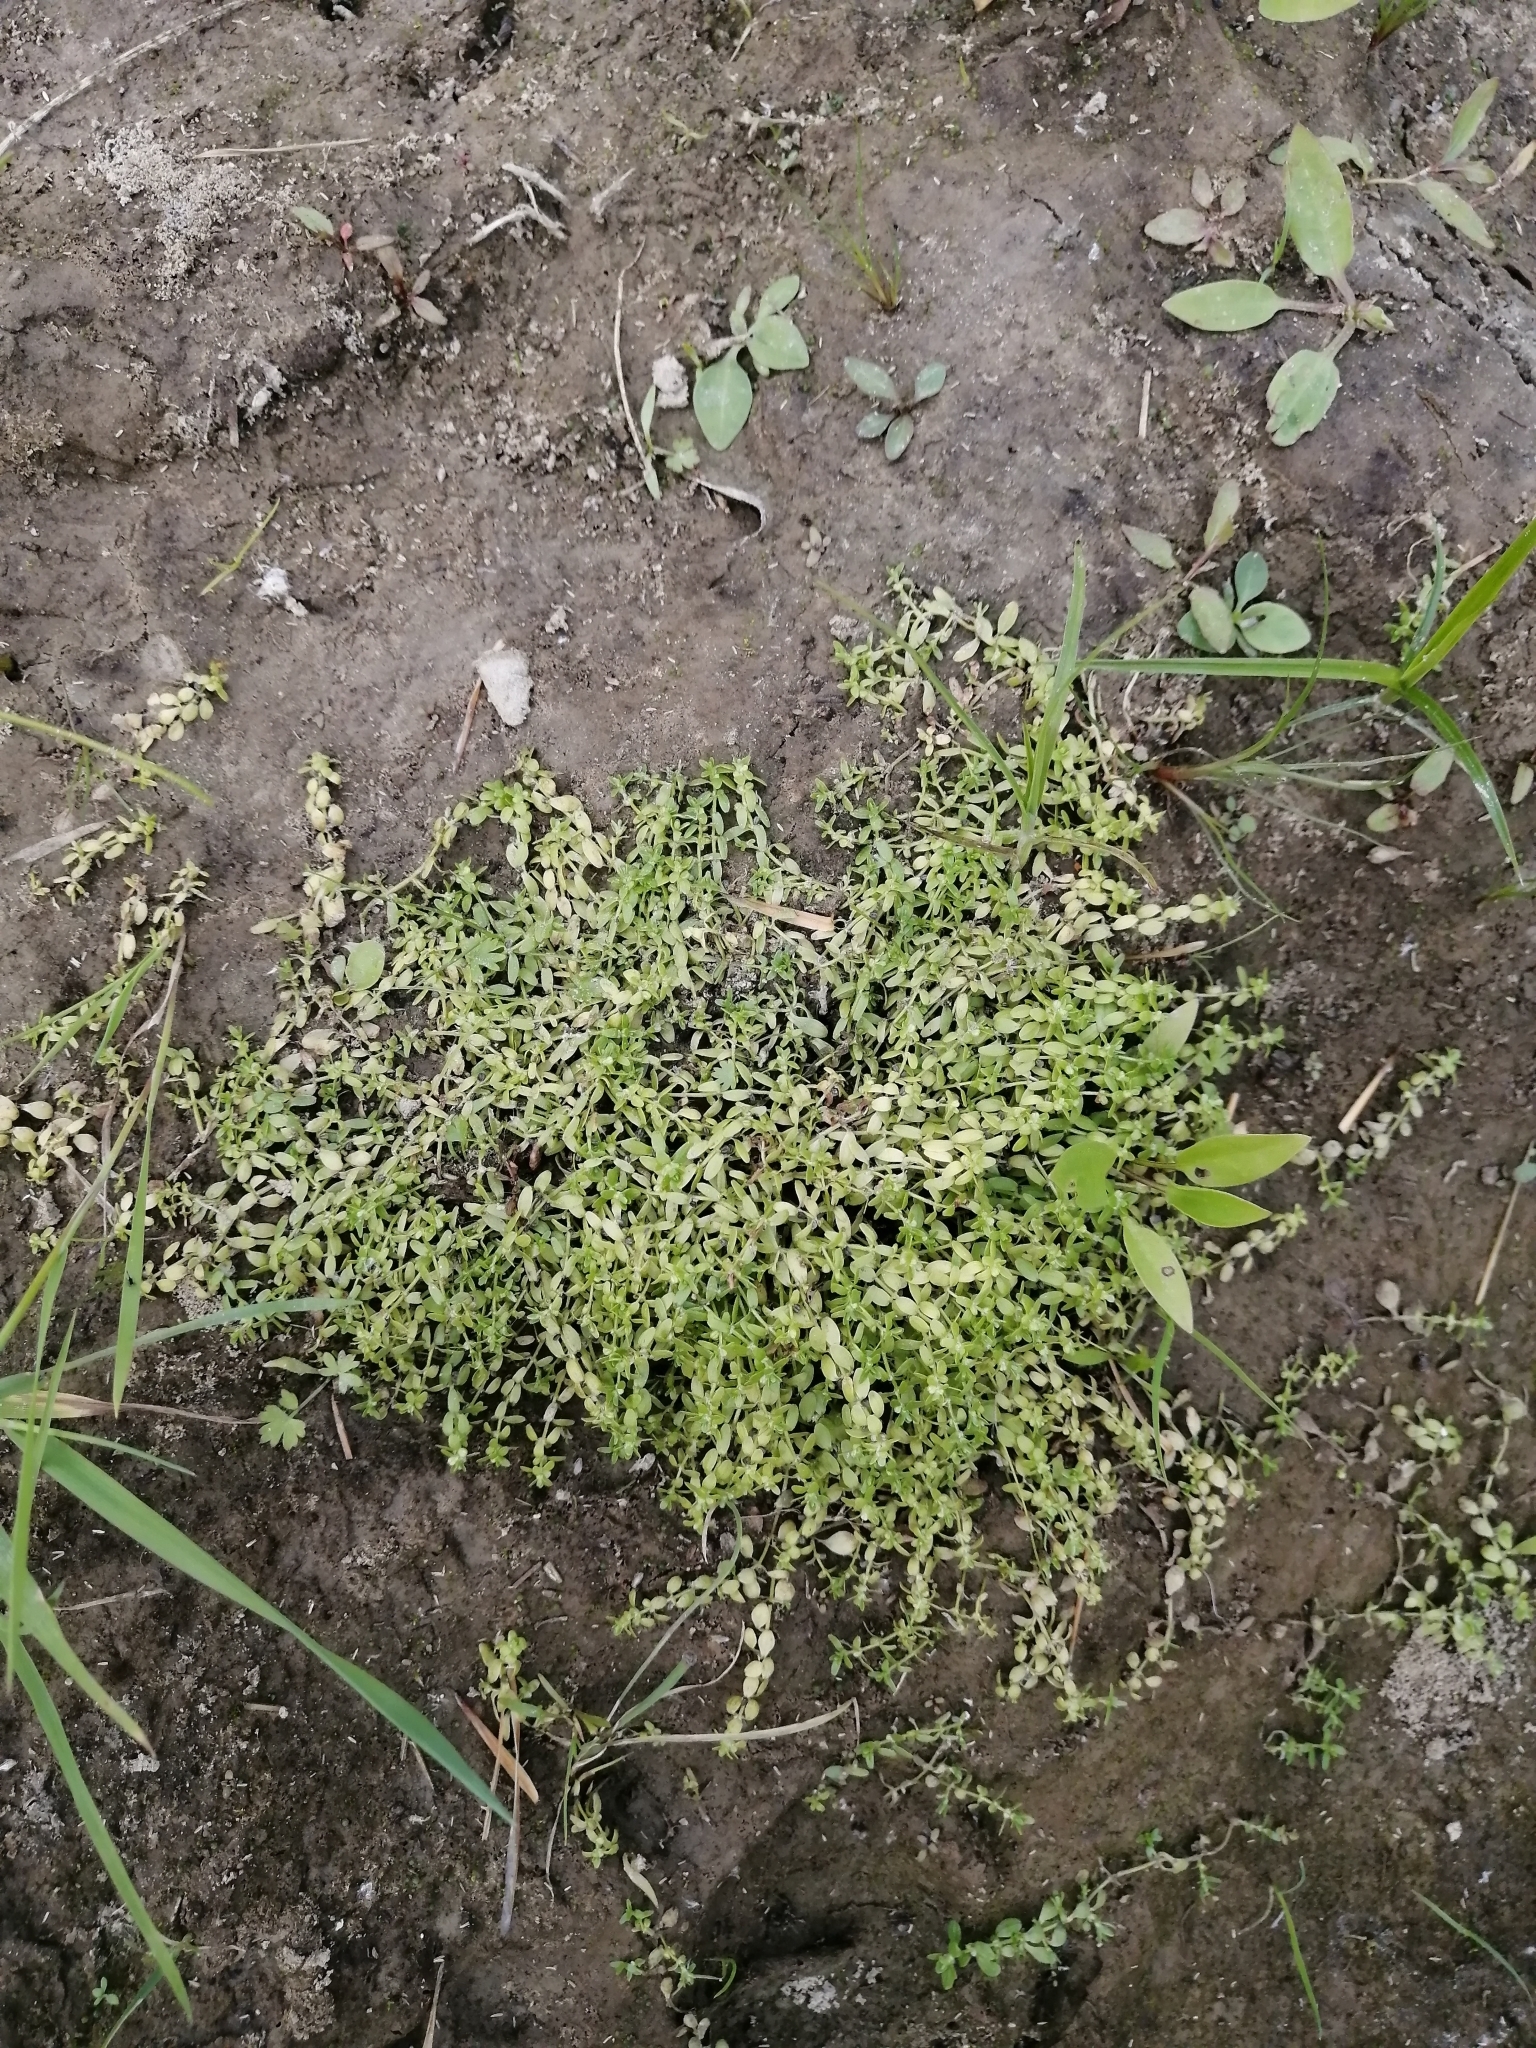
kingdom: Plantae
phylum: Tracheophyta
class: Magnoliopsida
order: Lamiales
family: Plantaginaceae
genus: Callitriche
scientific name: Callitriche palustris
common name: Spring water-starwort
